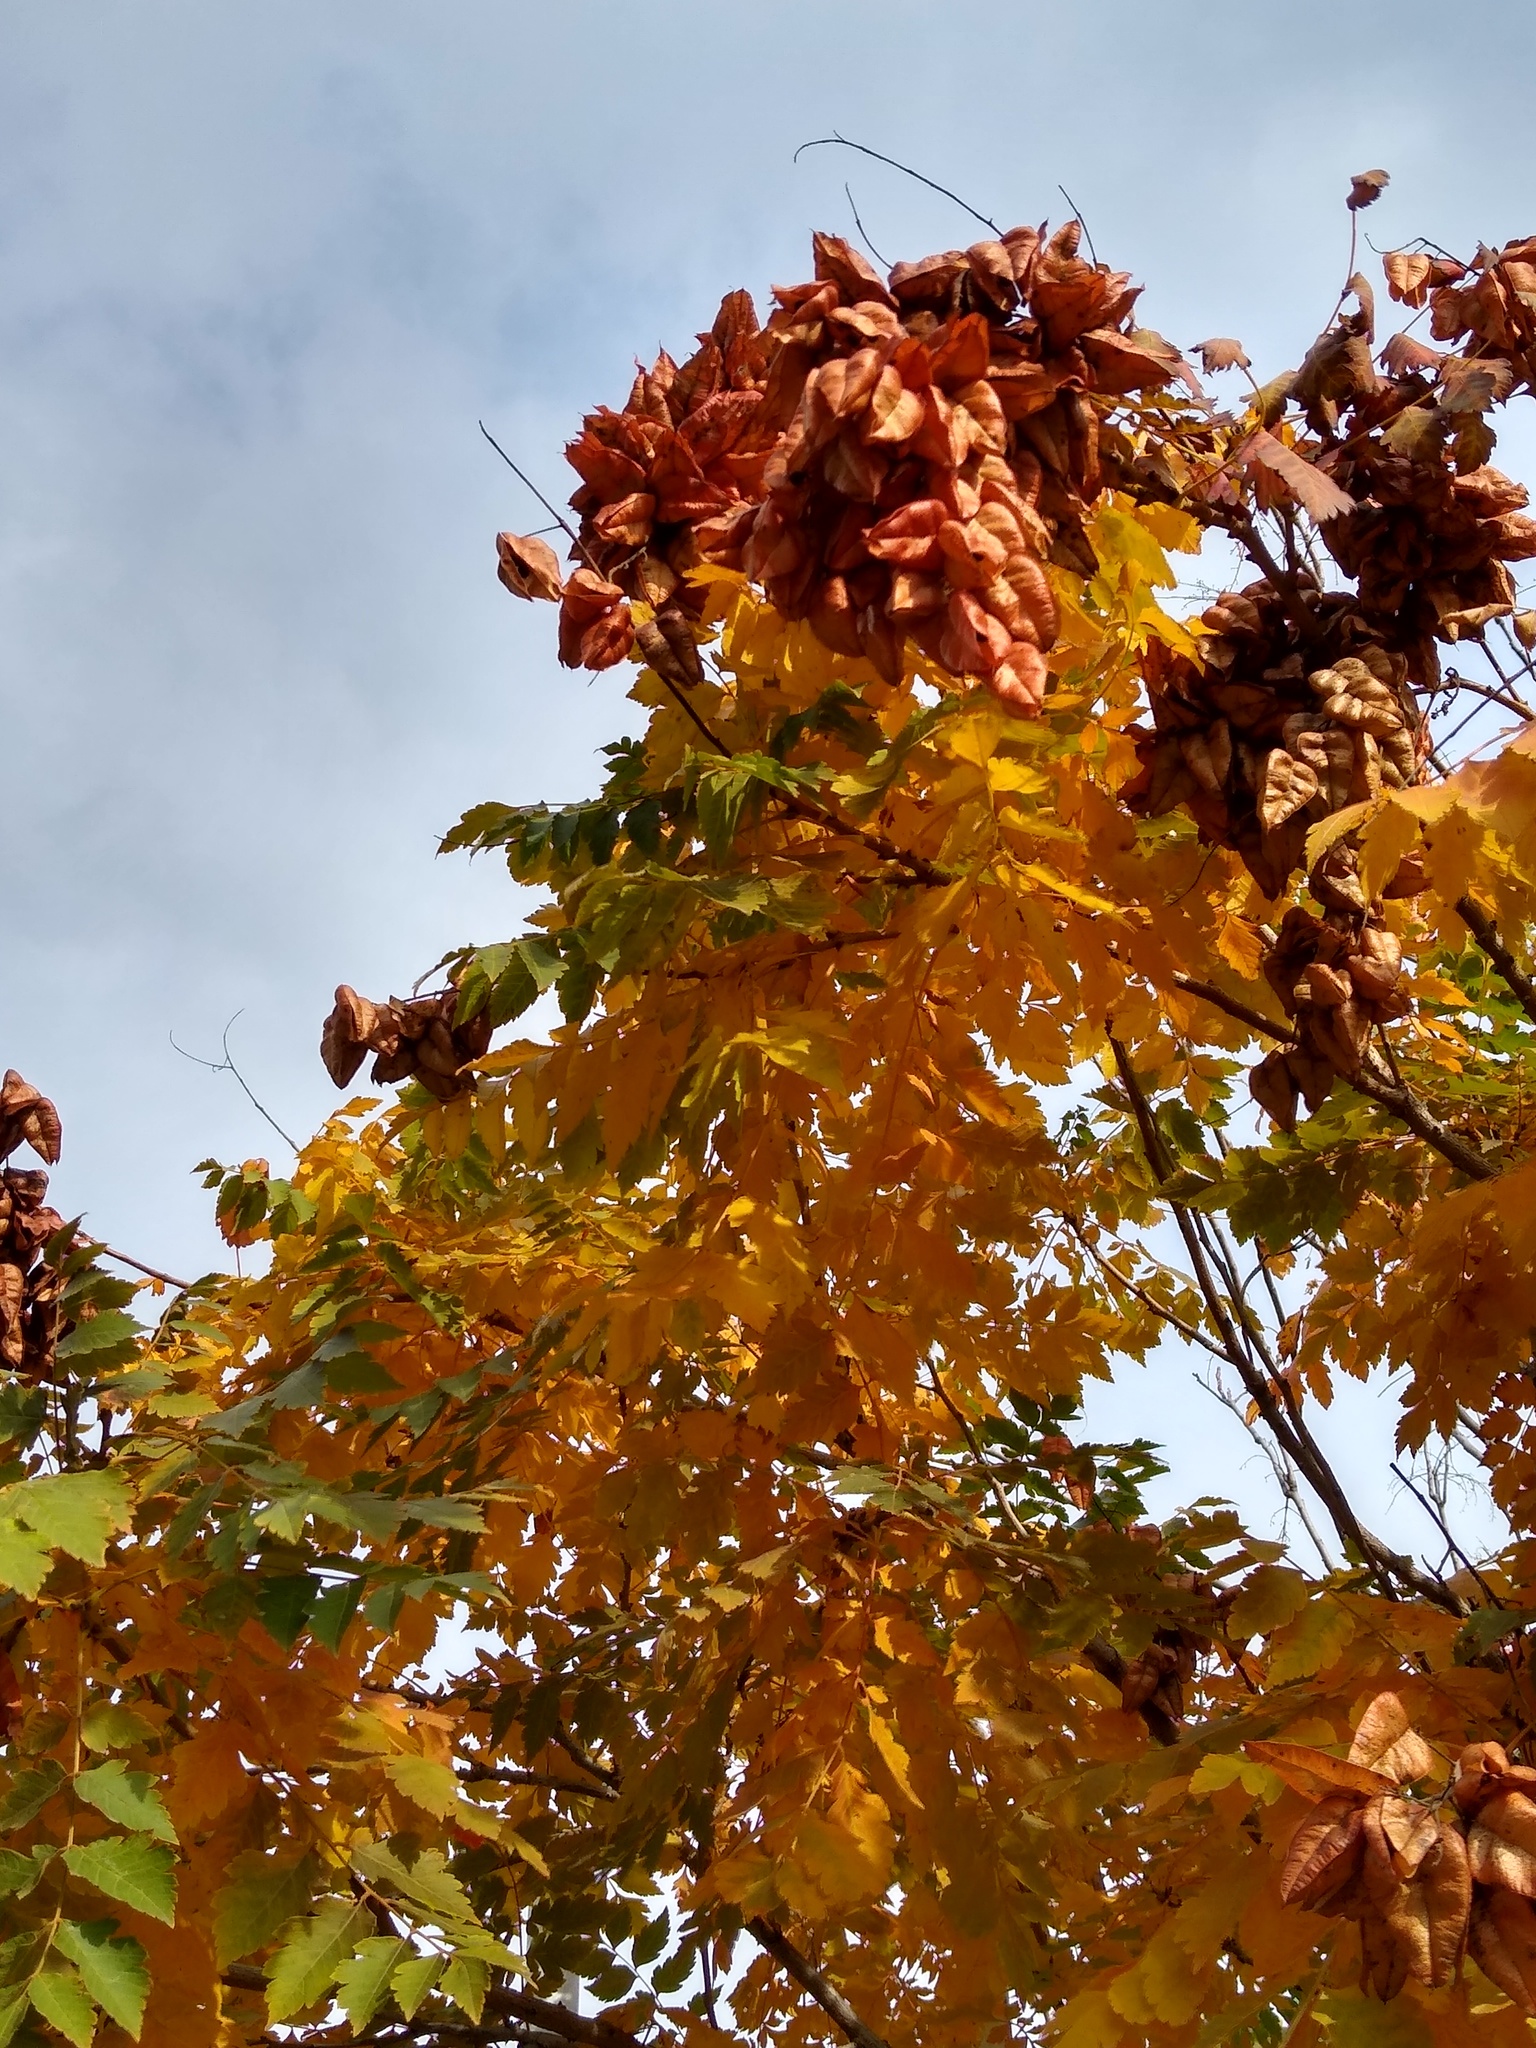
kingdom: Plantae
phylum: Tracheophyta
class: Magnoliopsida
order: Sapindales
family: Sapindaceae
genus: Koelreuteria
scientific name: Koelreuteria paniculata
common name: Pride-of-india
